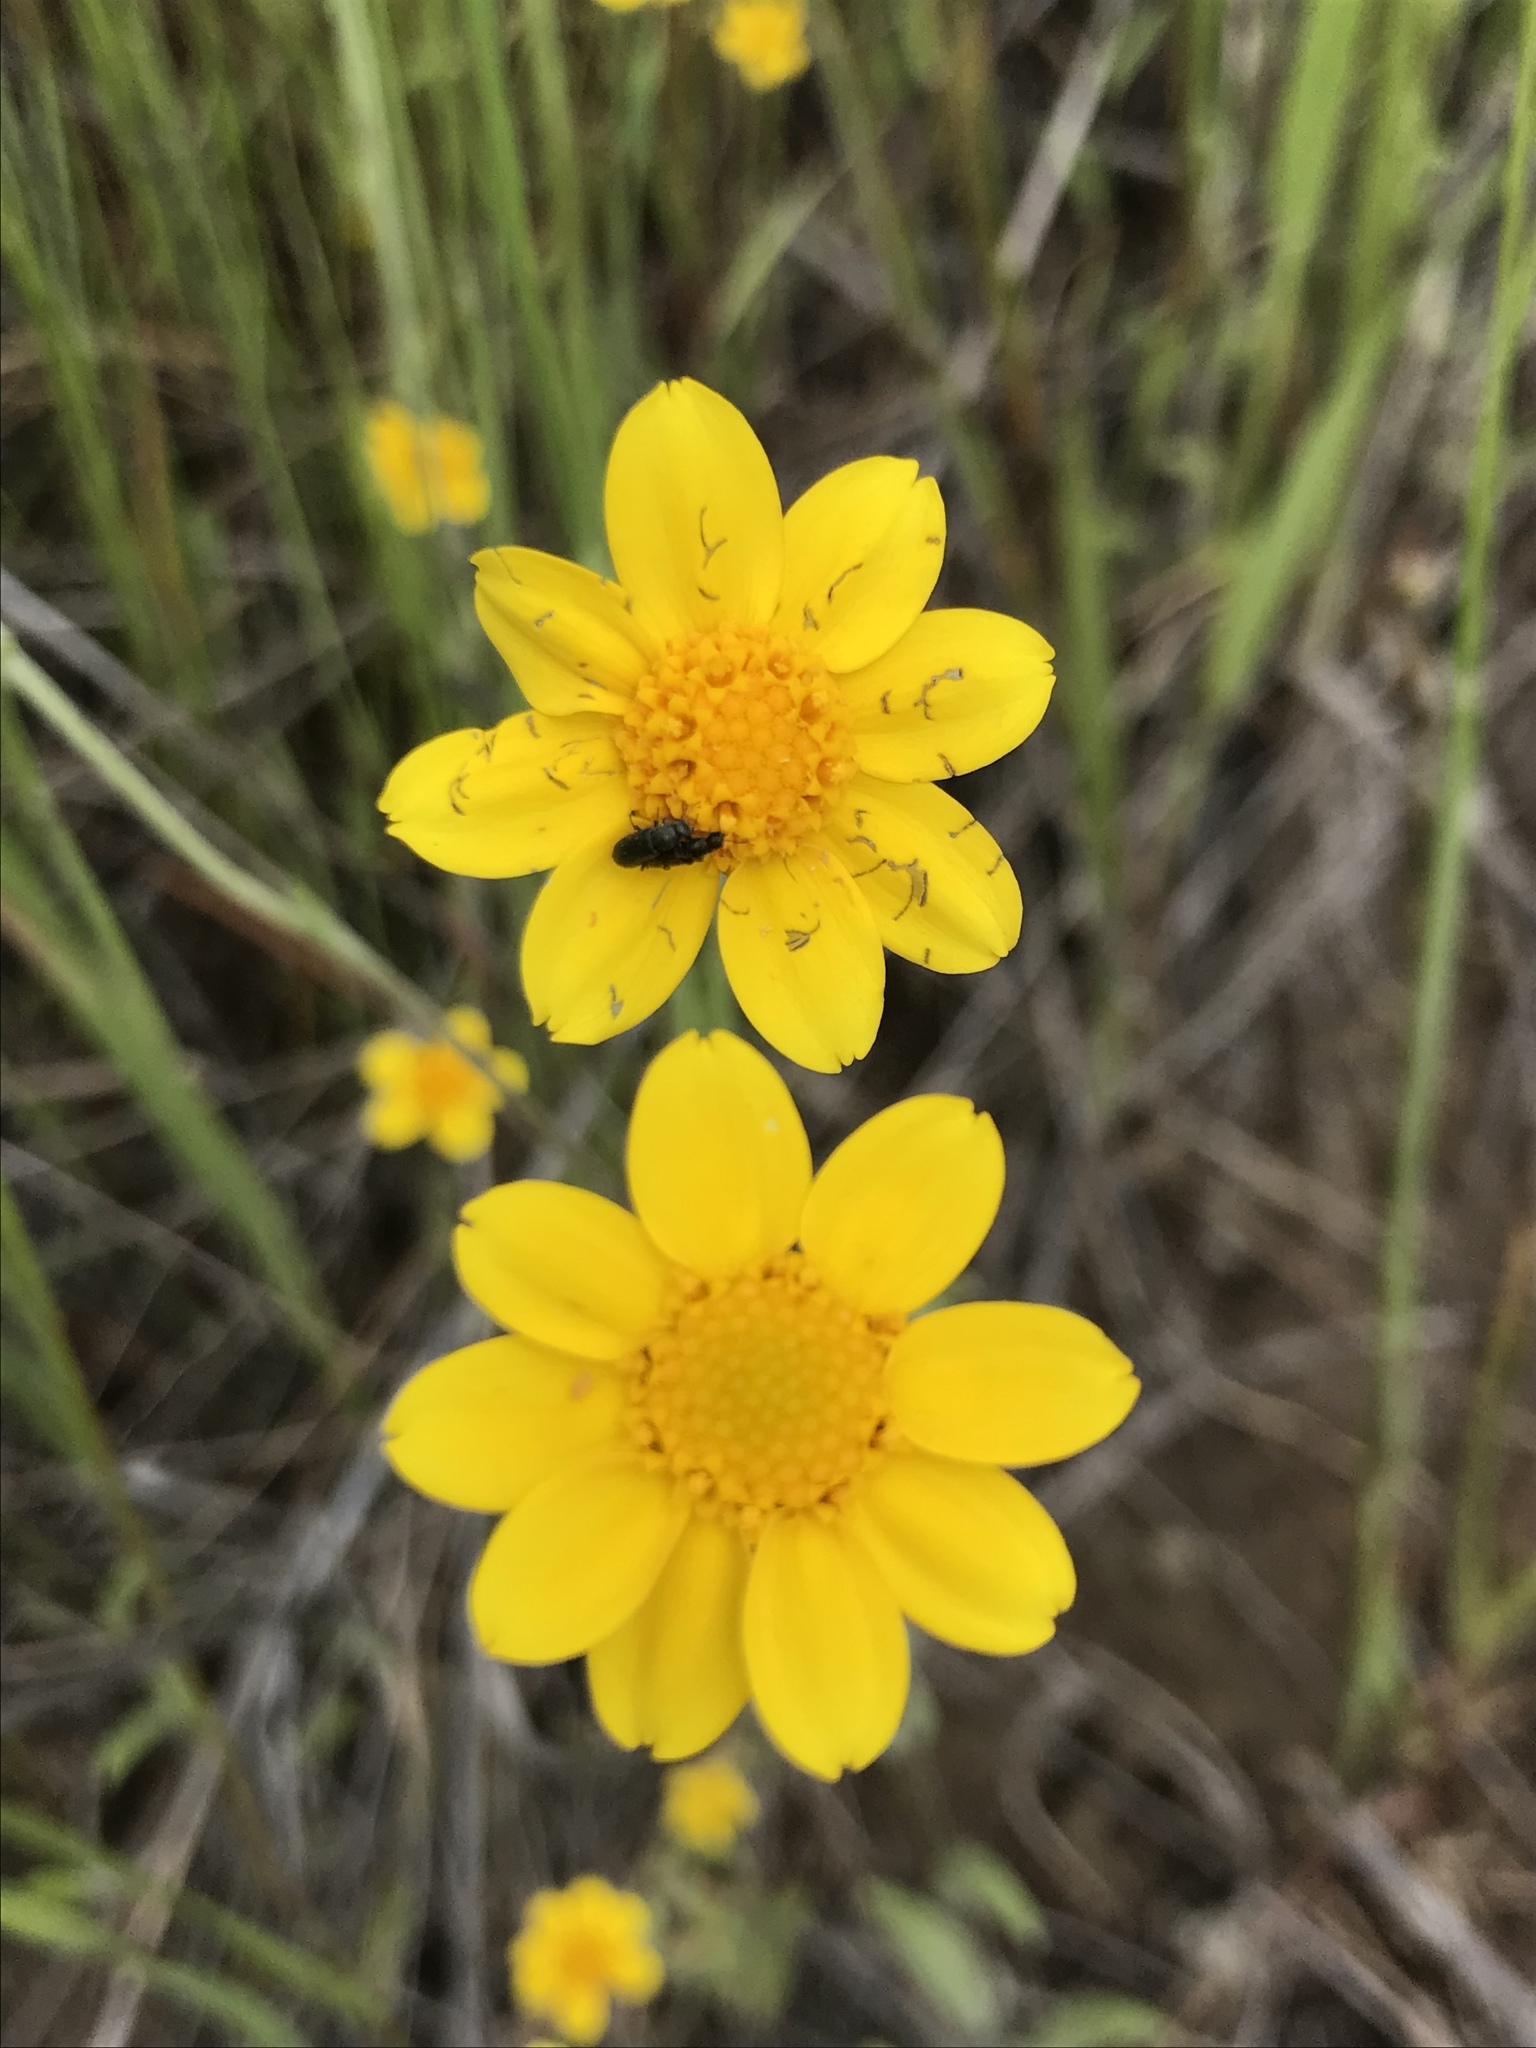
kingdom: Plantae
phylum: Tracheophyta
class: Magnoliopsida
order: Asterales
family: Asteraceae
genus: Monolopia
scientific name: Monolopia gracilens
